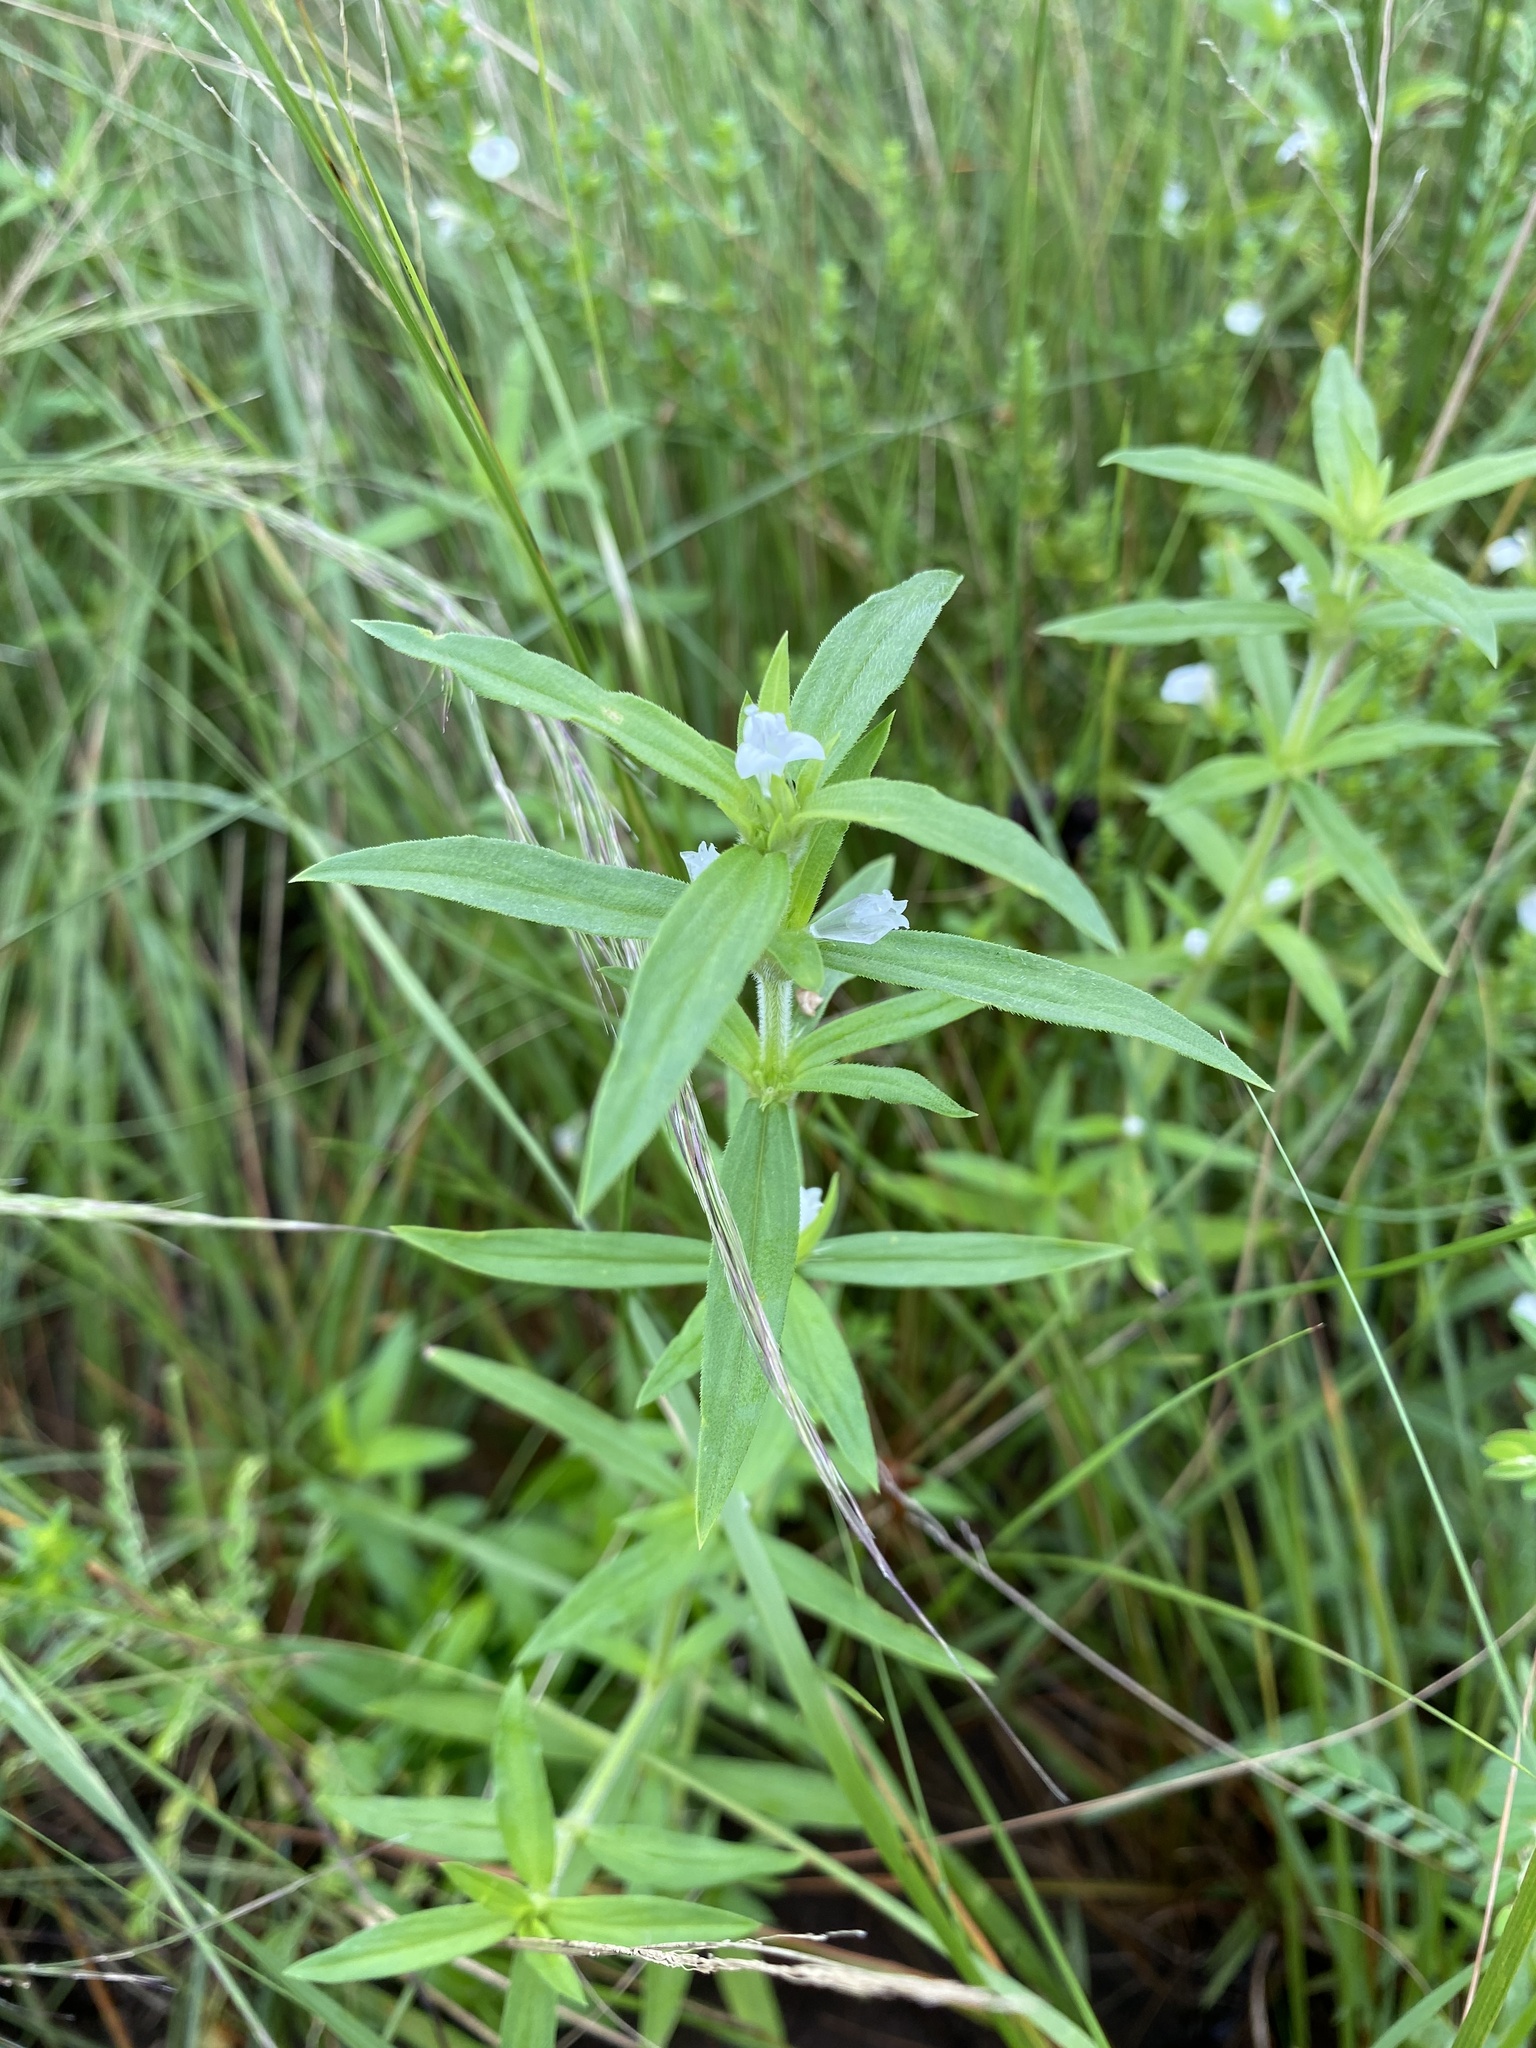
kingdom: Plantae
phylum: Tracheophyta
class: Magnoliopsida
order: Lamiales
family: Lamiaceae
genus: Salvia
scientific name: Salvia reflexa
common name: Mintweed
